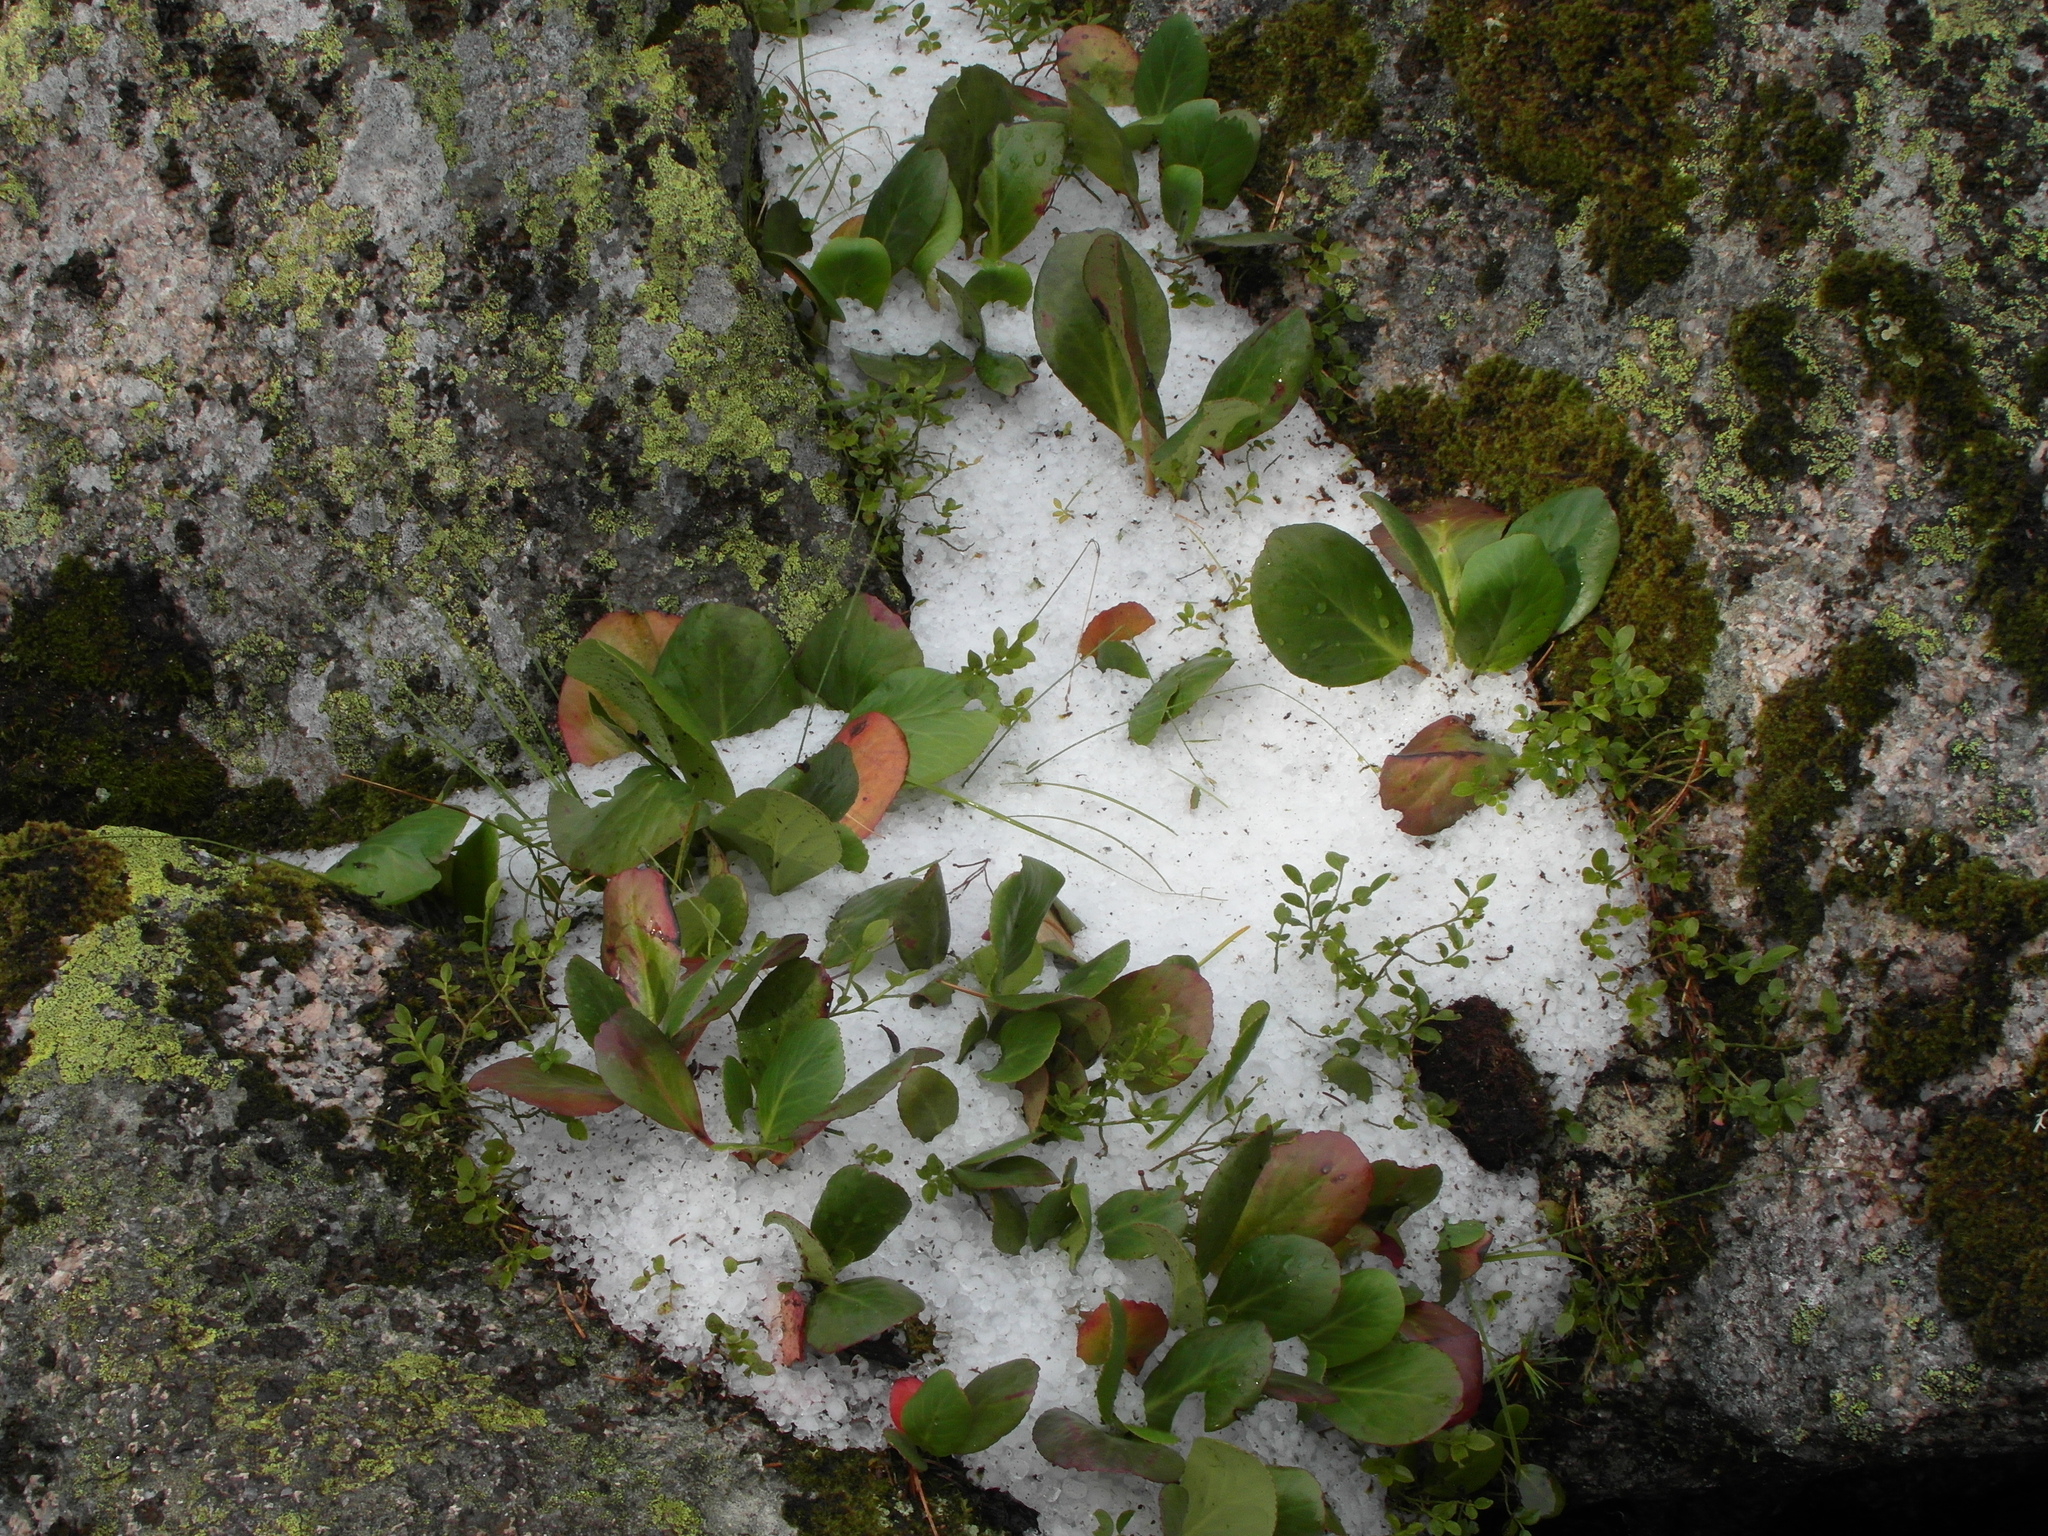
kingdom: Plantae
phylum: Tracheophyta
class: Magnoliopsida
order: Saxifragales
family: Saxifragaceae
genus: Bergenia
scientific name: Bergenia crassifolia
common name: Elephant-ears
